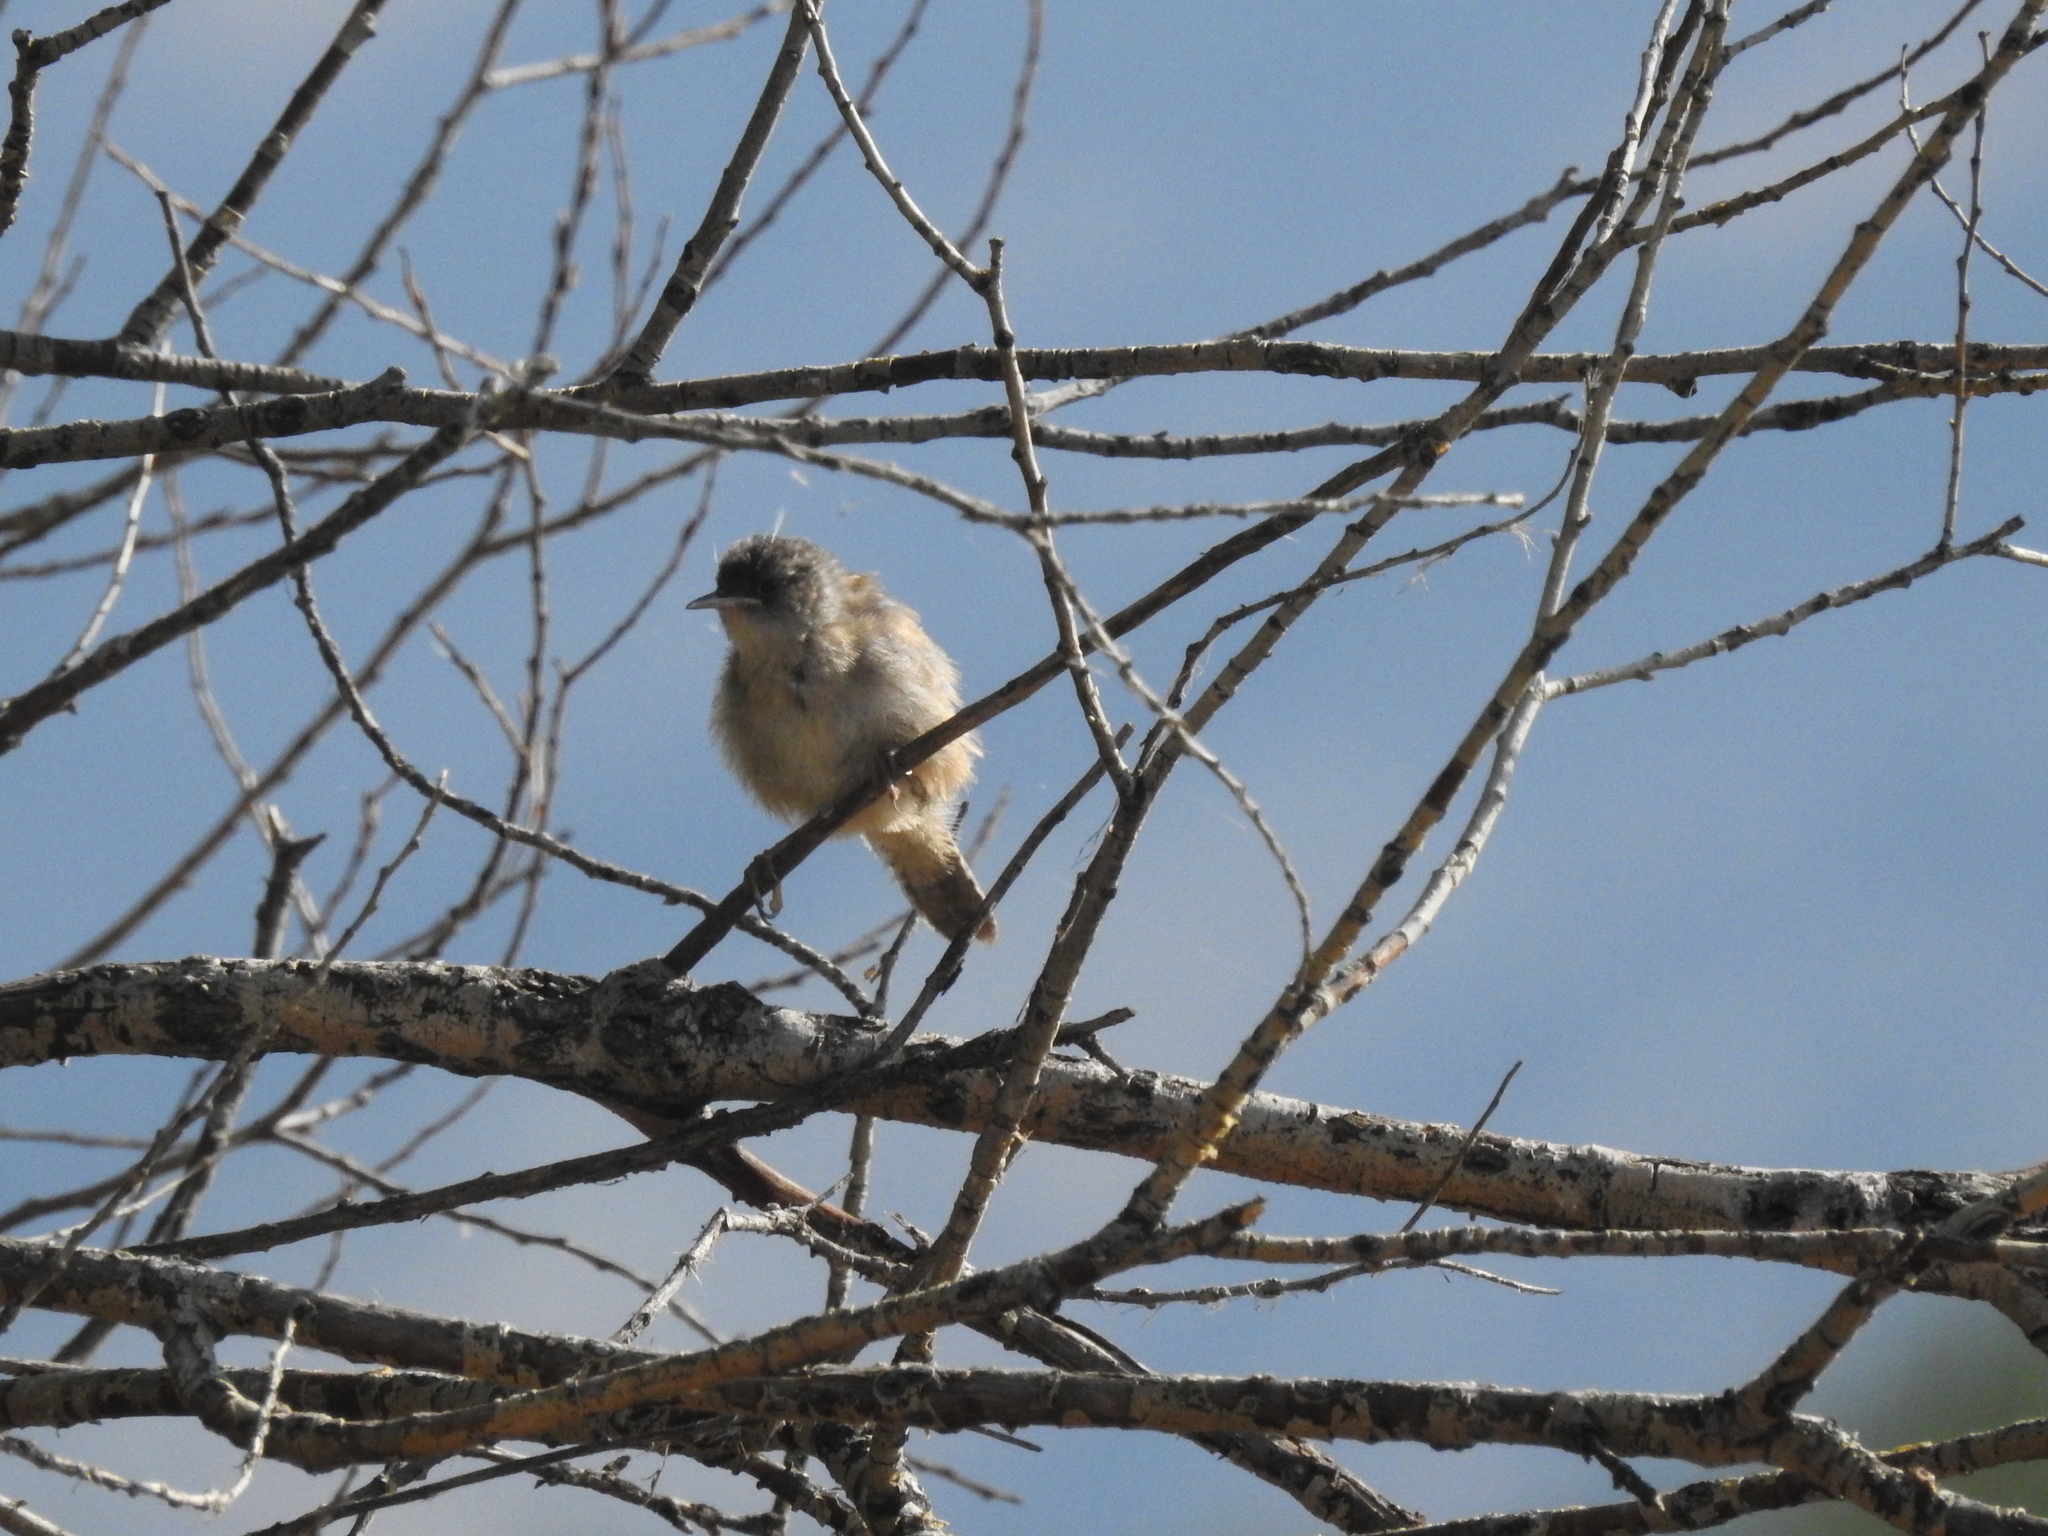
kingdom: Animalia
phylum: Chordata
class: Aves
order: Passeriformes
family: Troglodytidae
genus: Troglodytes
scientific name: Troglodytes aedon
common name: House wren
